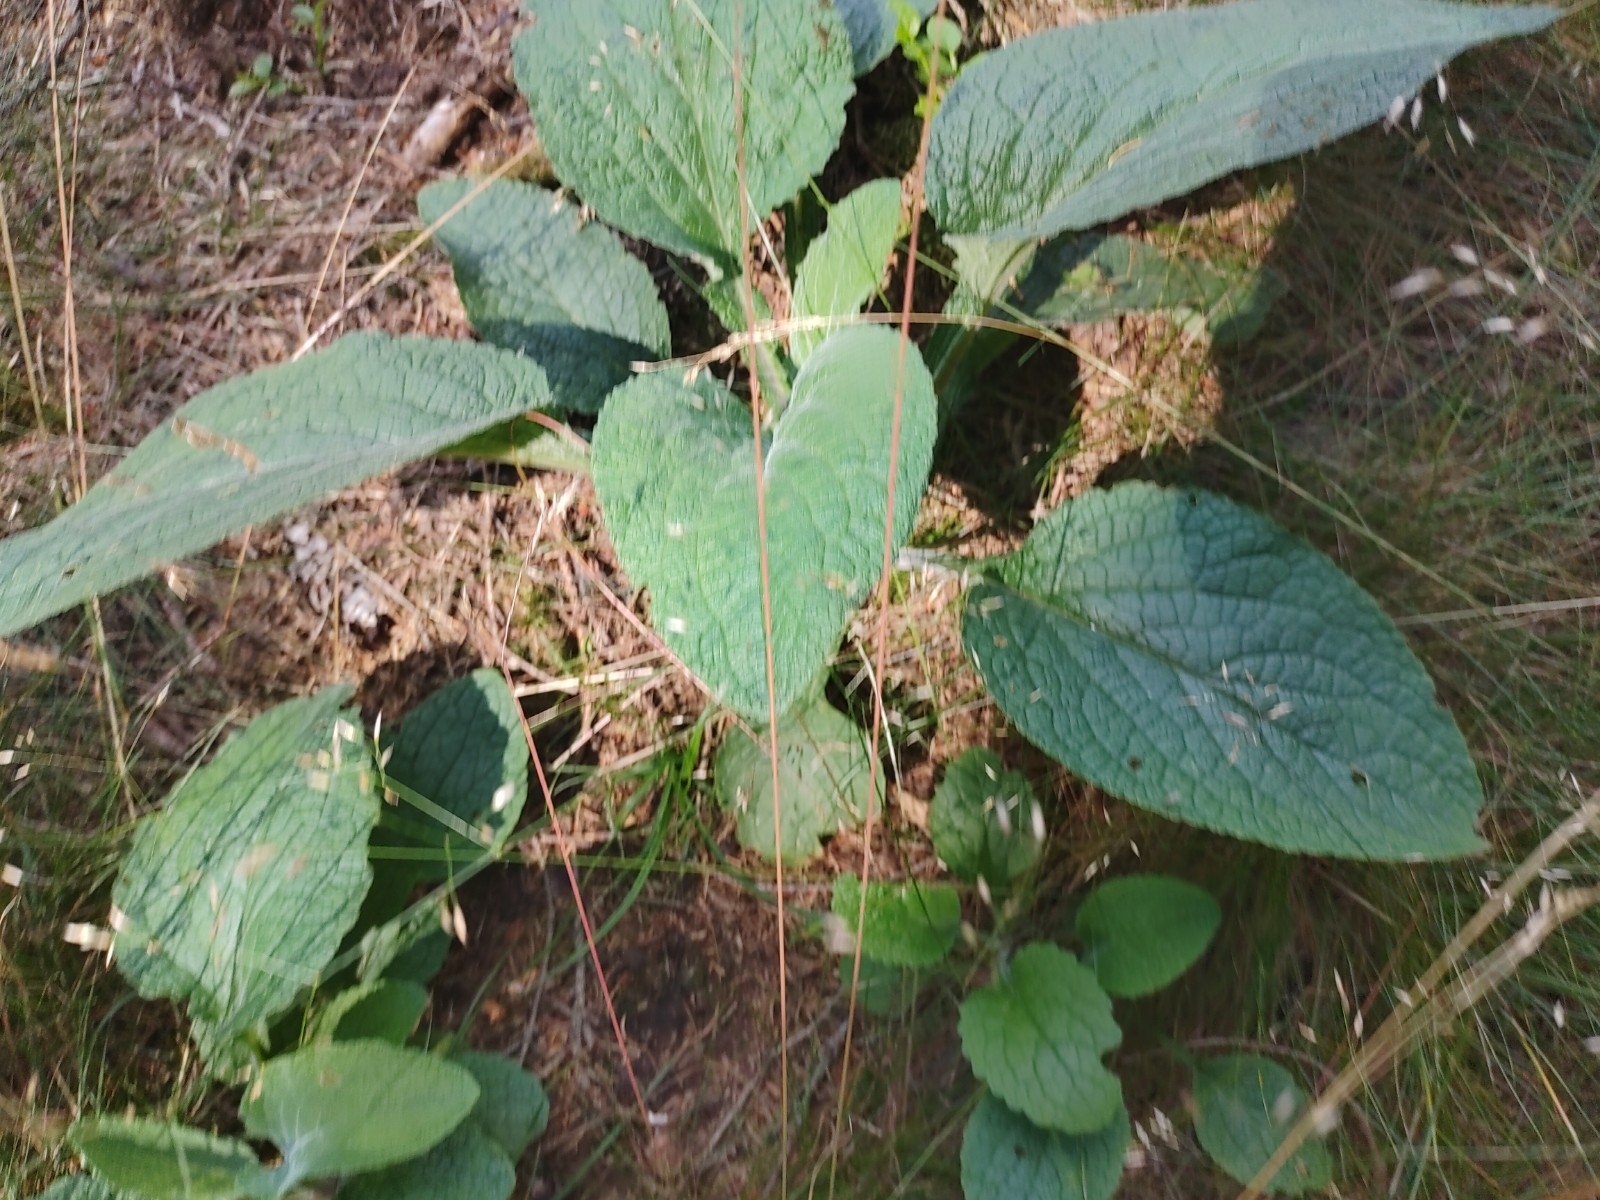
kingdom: Plantae
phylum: Tracheophyta
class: Magnoliopsida
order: Lamiales
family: Plantaginaceae
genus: Digitalis
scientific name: Digitalis purpurea
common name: Foxglove
